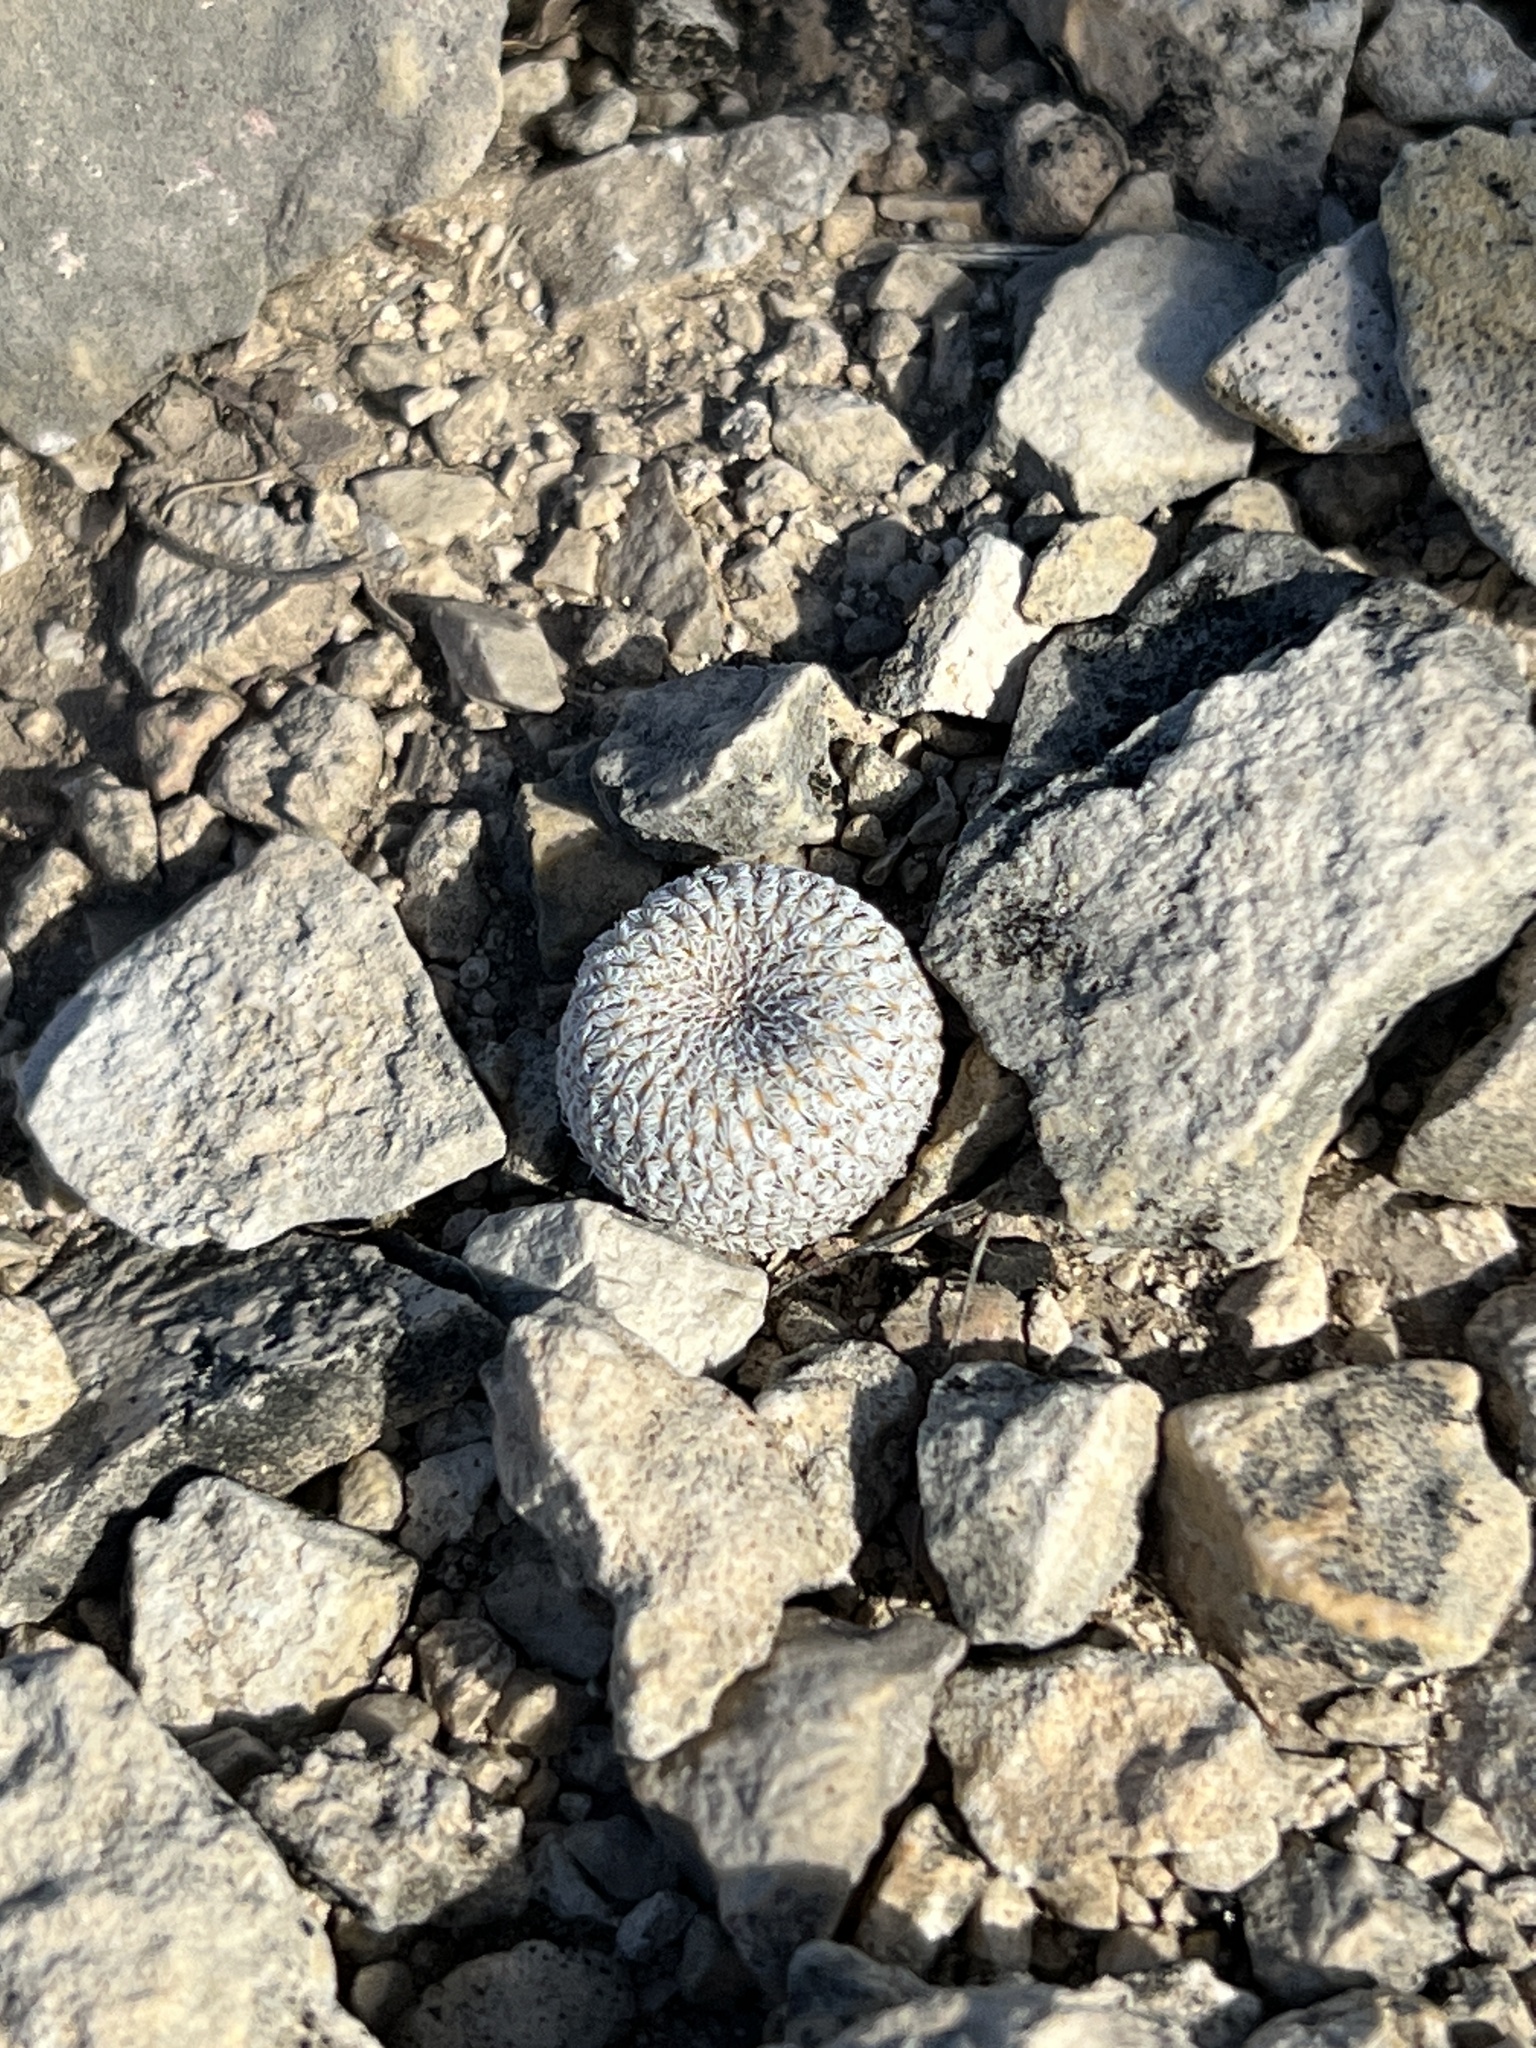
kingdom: Plantae
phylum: Tracheophyta
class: Magnoliopsida
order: Caryophyllales
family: Cactaceae
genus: Epithelantha
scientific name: Epithelantha micromeris
